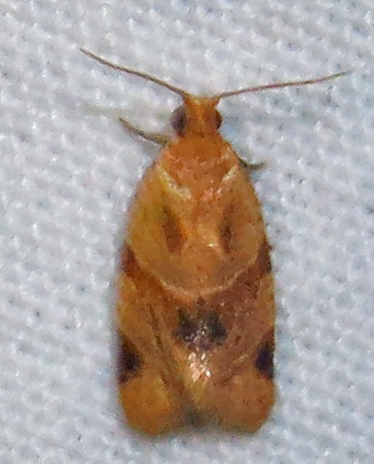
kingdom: Animalia
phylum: Arthropoda
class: Insecta
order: Lepidoptera
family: Tortricidae
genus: Clepsis
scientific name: Clepsis peritana
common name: Garden tortrix
